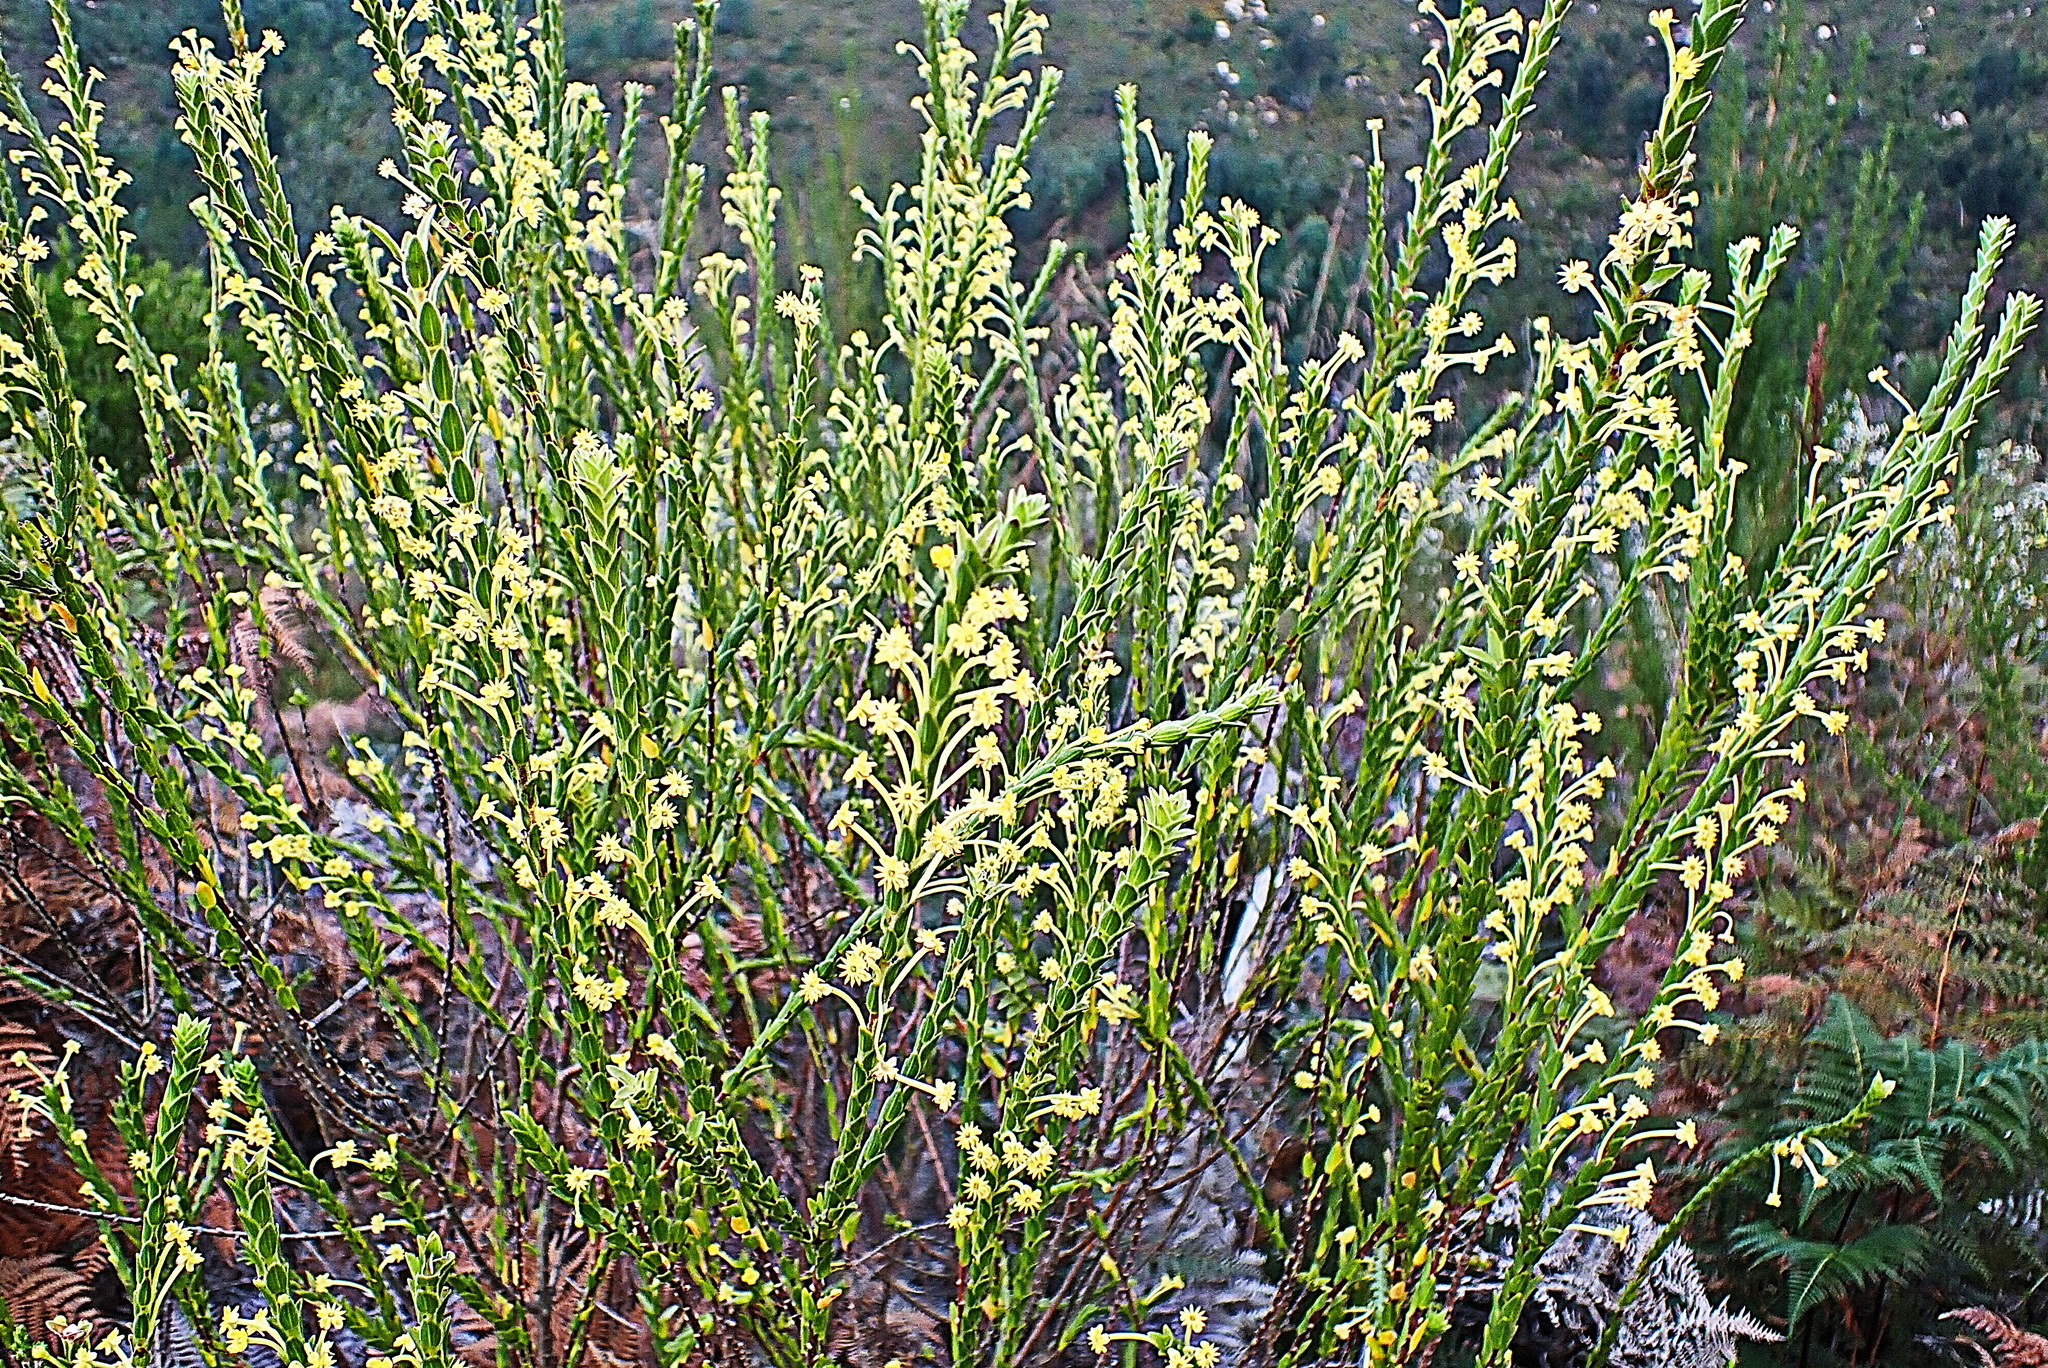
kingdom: Plantae
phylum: Tracheophyta
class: Magnoliopsida
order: Malvales
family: Thymelaeaceae
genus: Struthiola
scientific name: Struthiola garciana
